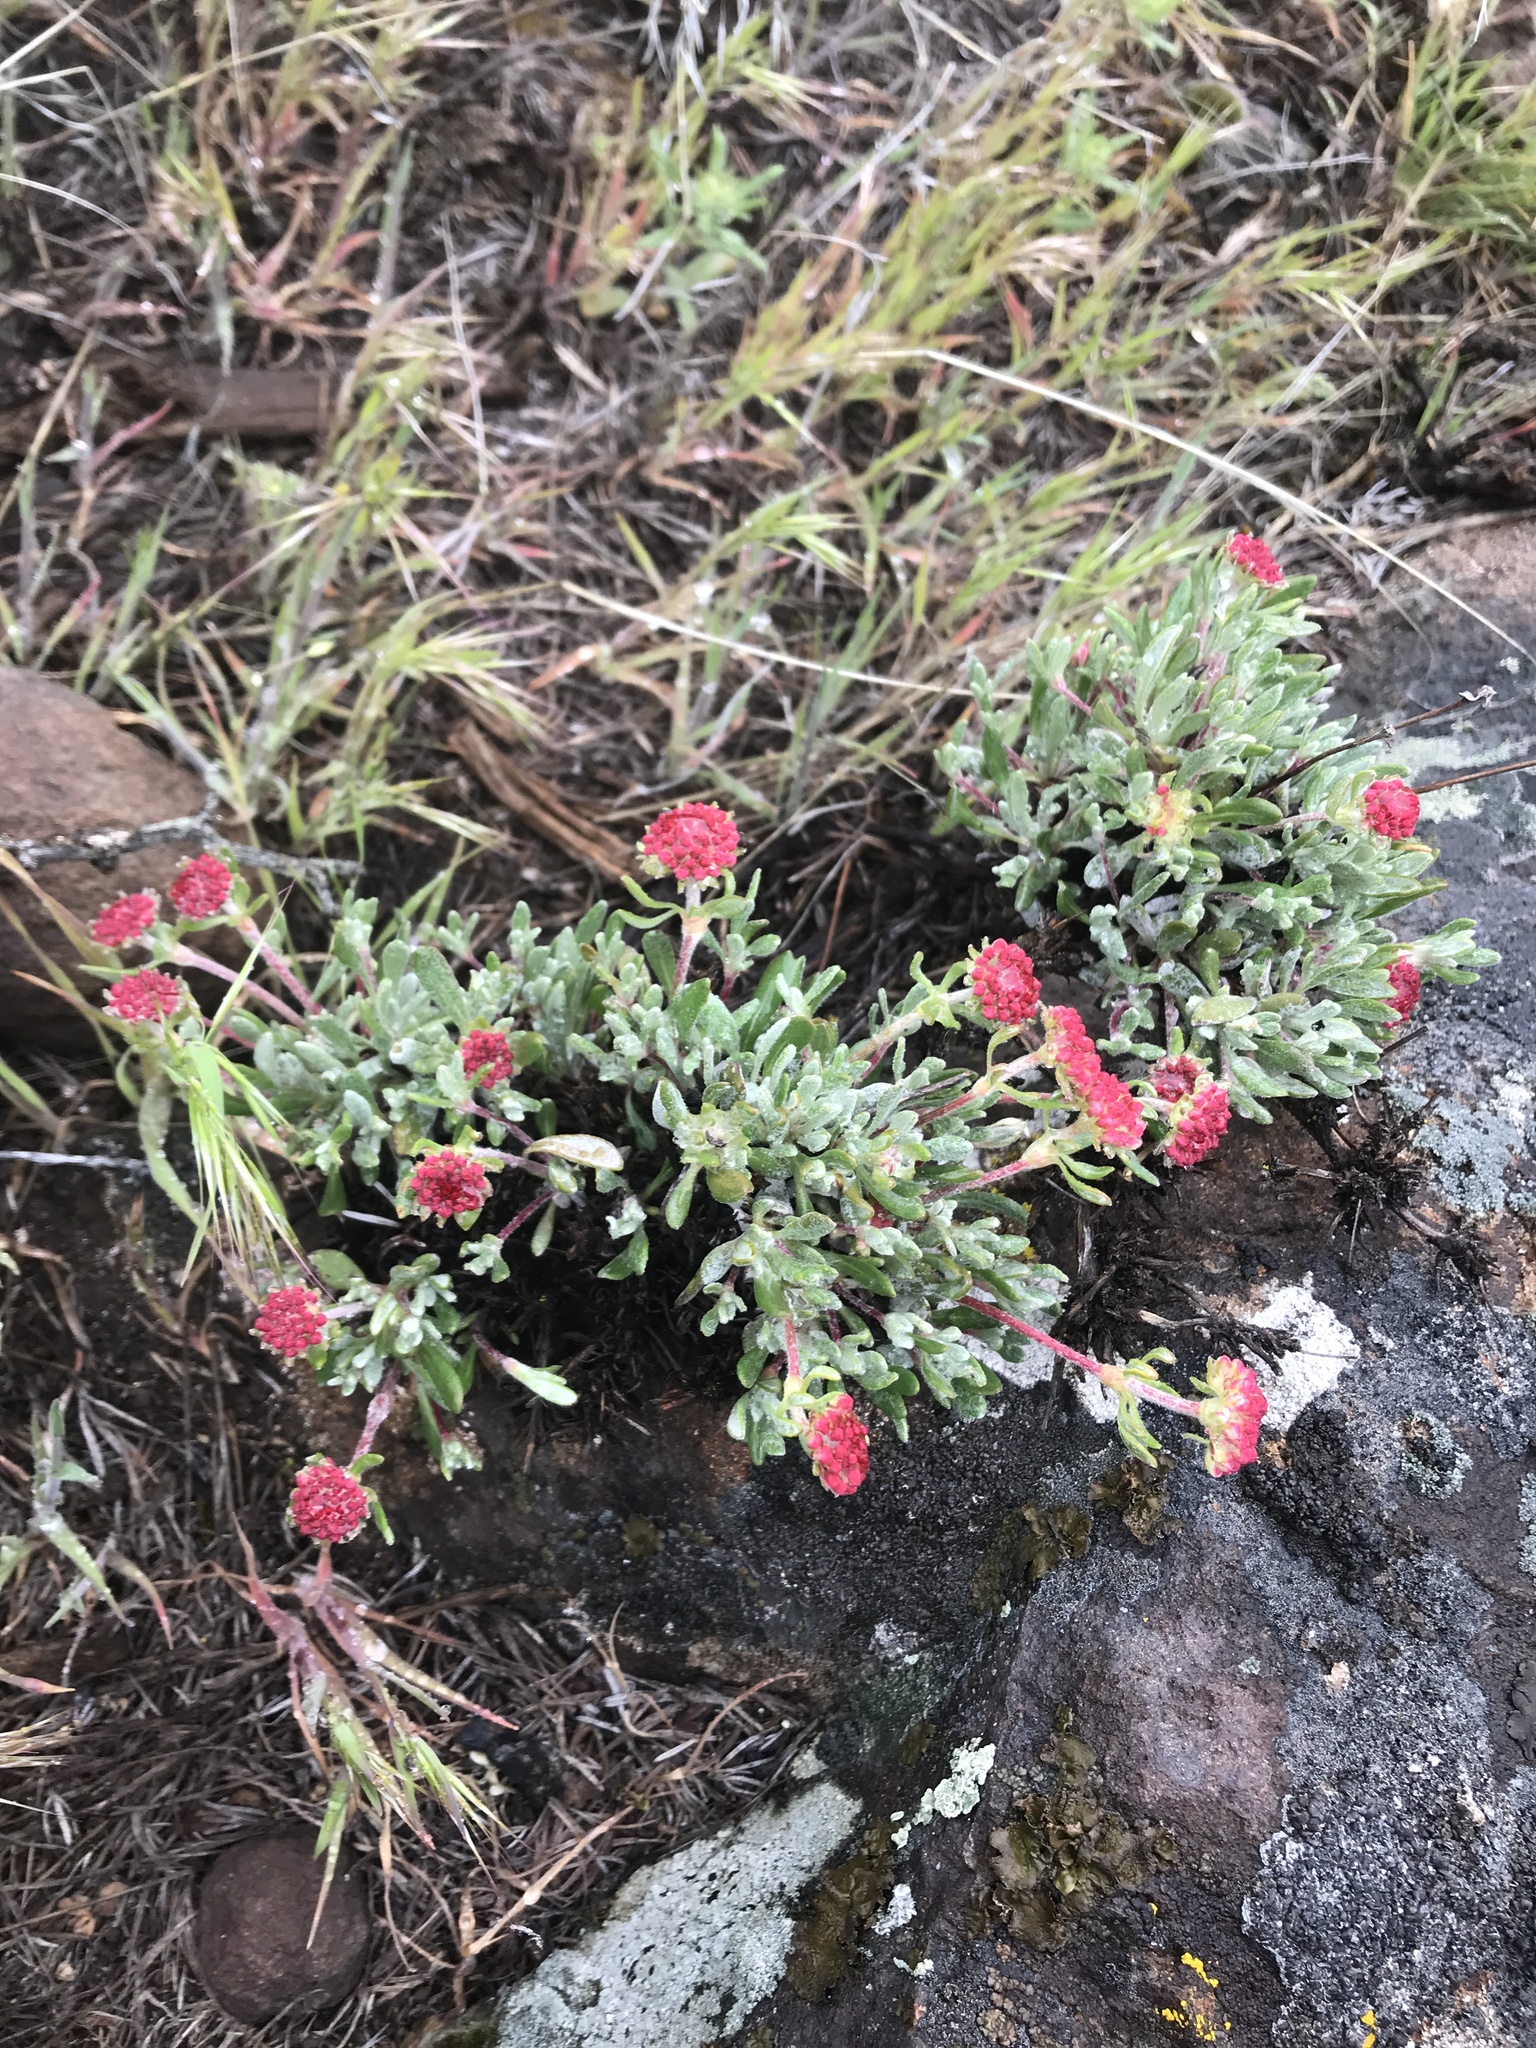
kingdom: Plantae
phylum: Tracheophyta
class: Magnoliopsida
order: Caryophyllales
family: Polygonaceae
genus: Eriogonum
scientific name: Eriogonum douglasii
